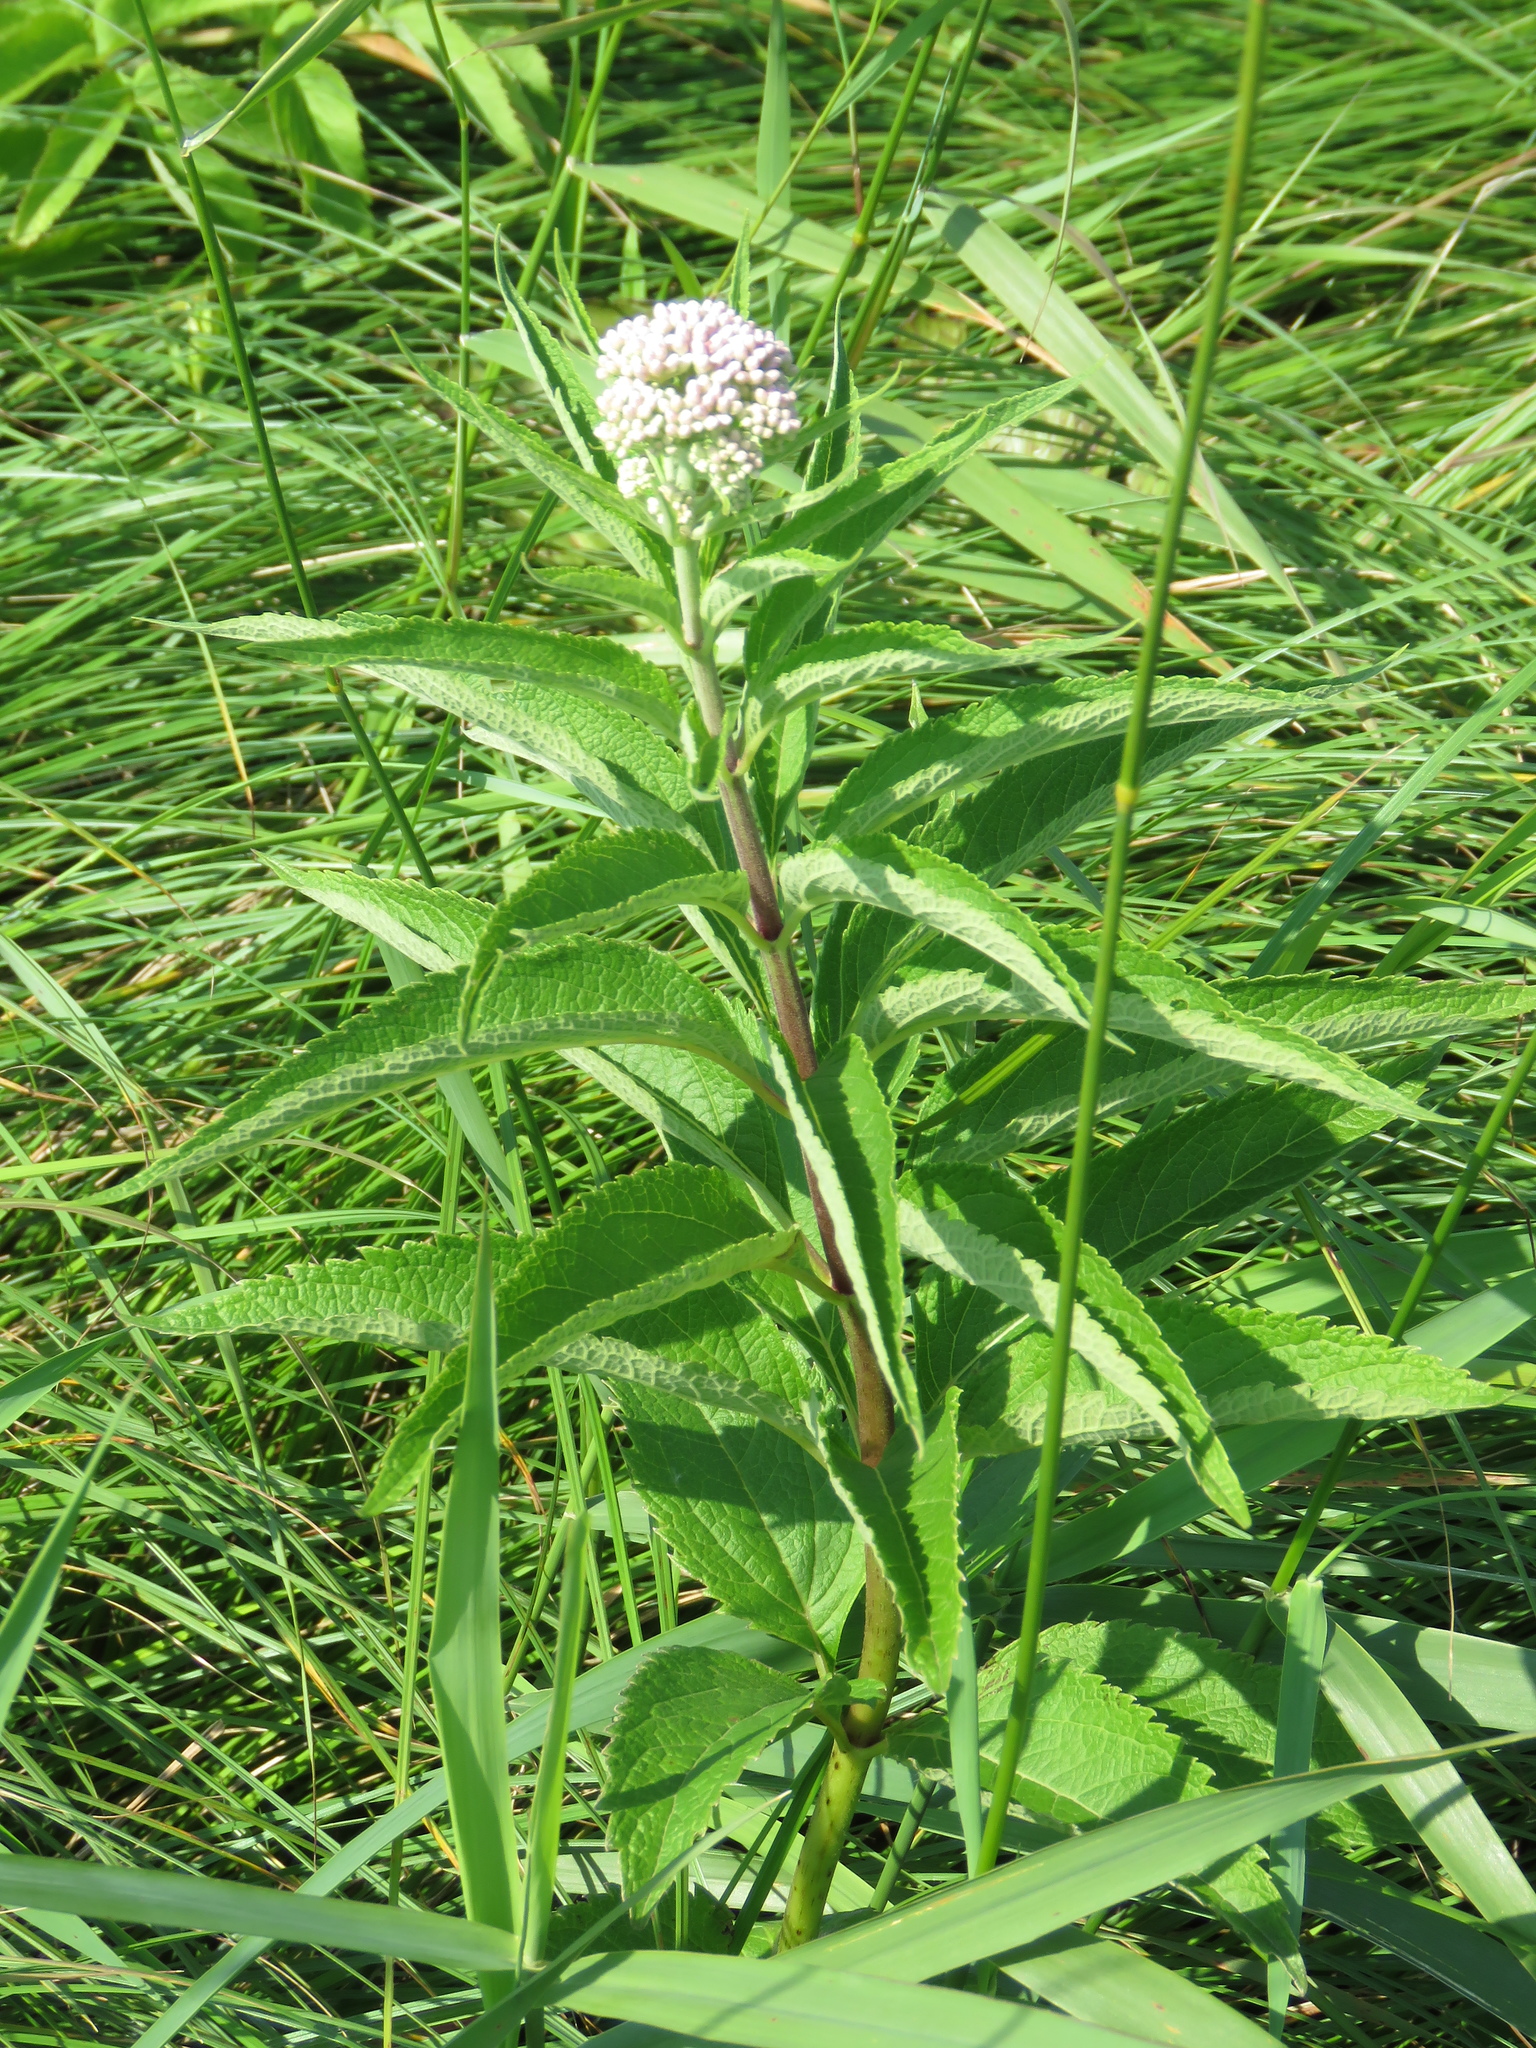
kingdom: Plantae
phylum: Tracheophyta
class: Magnoliopsida
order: Asterales
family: Asteraceae
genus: Eutrochium
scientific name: Eutrochium maculatum
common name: Spotted joe pye weed
